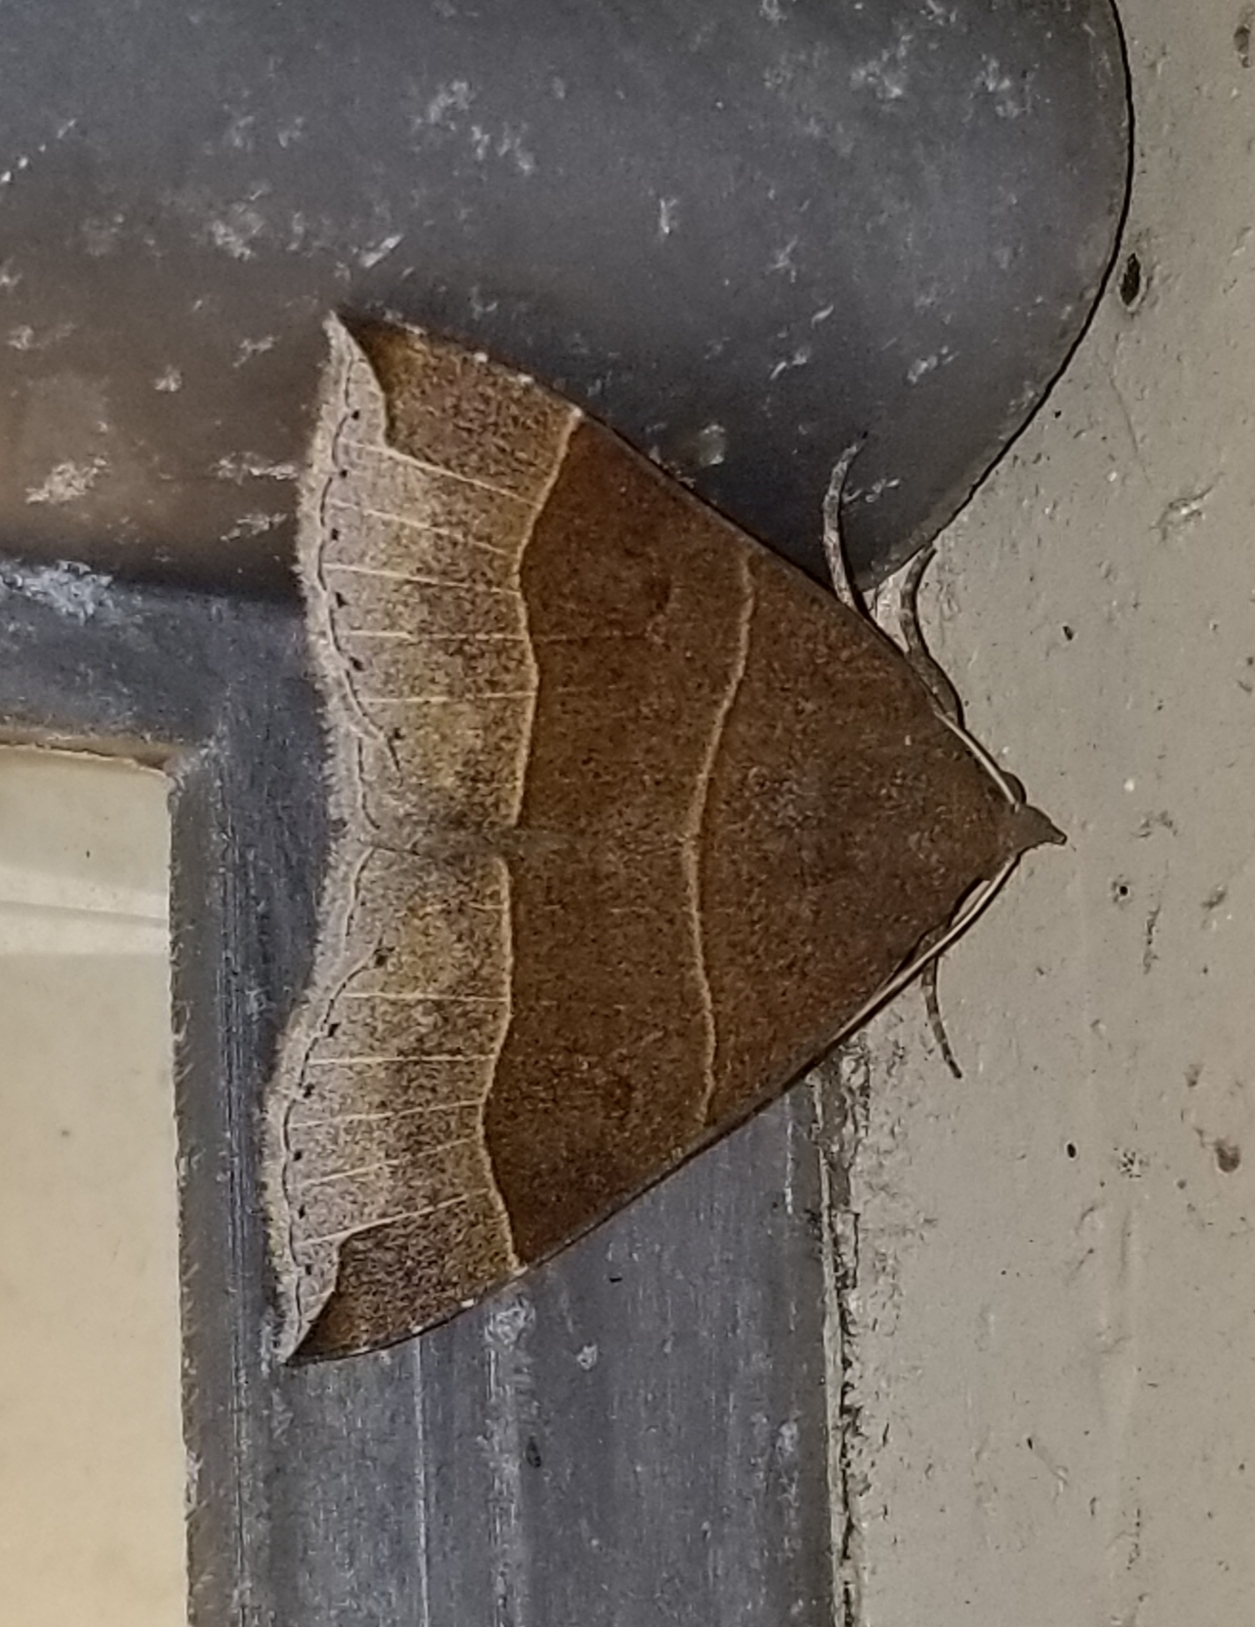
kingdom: Animalia
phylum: Arthropoda
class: Insecta
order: Lepidoptera
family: Erebidae
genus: Parallelia
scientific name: Parallelia bistriaris
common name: Maple looper moth
